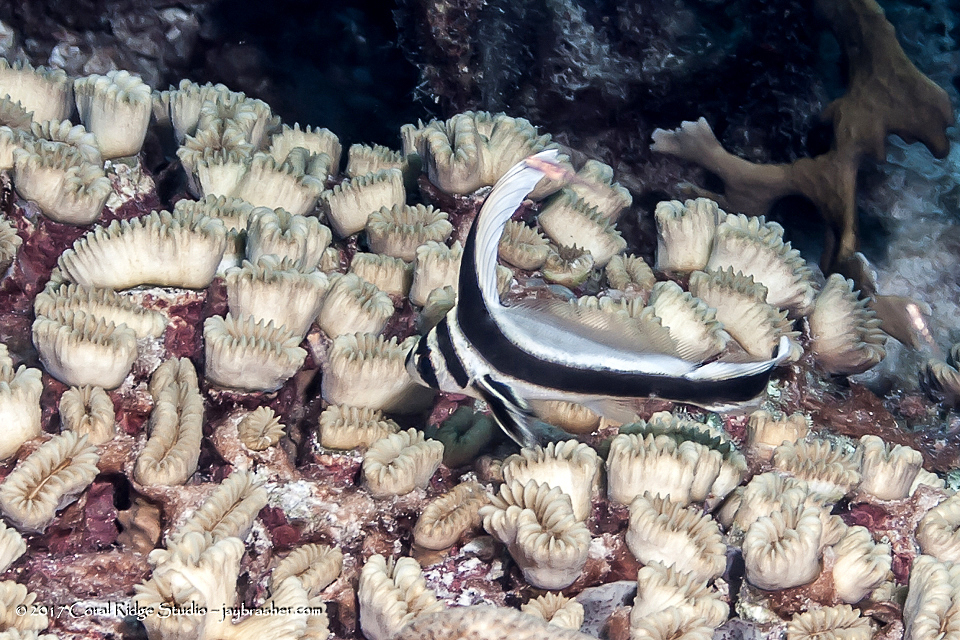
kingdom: Animalia
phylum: Cnidaria
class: Anthozoa
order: Scleractinia
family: Meandrinidae
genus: Eusmilia
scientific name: Eusmilia fastigiata
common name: Smooth flower coral
